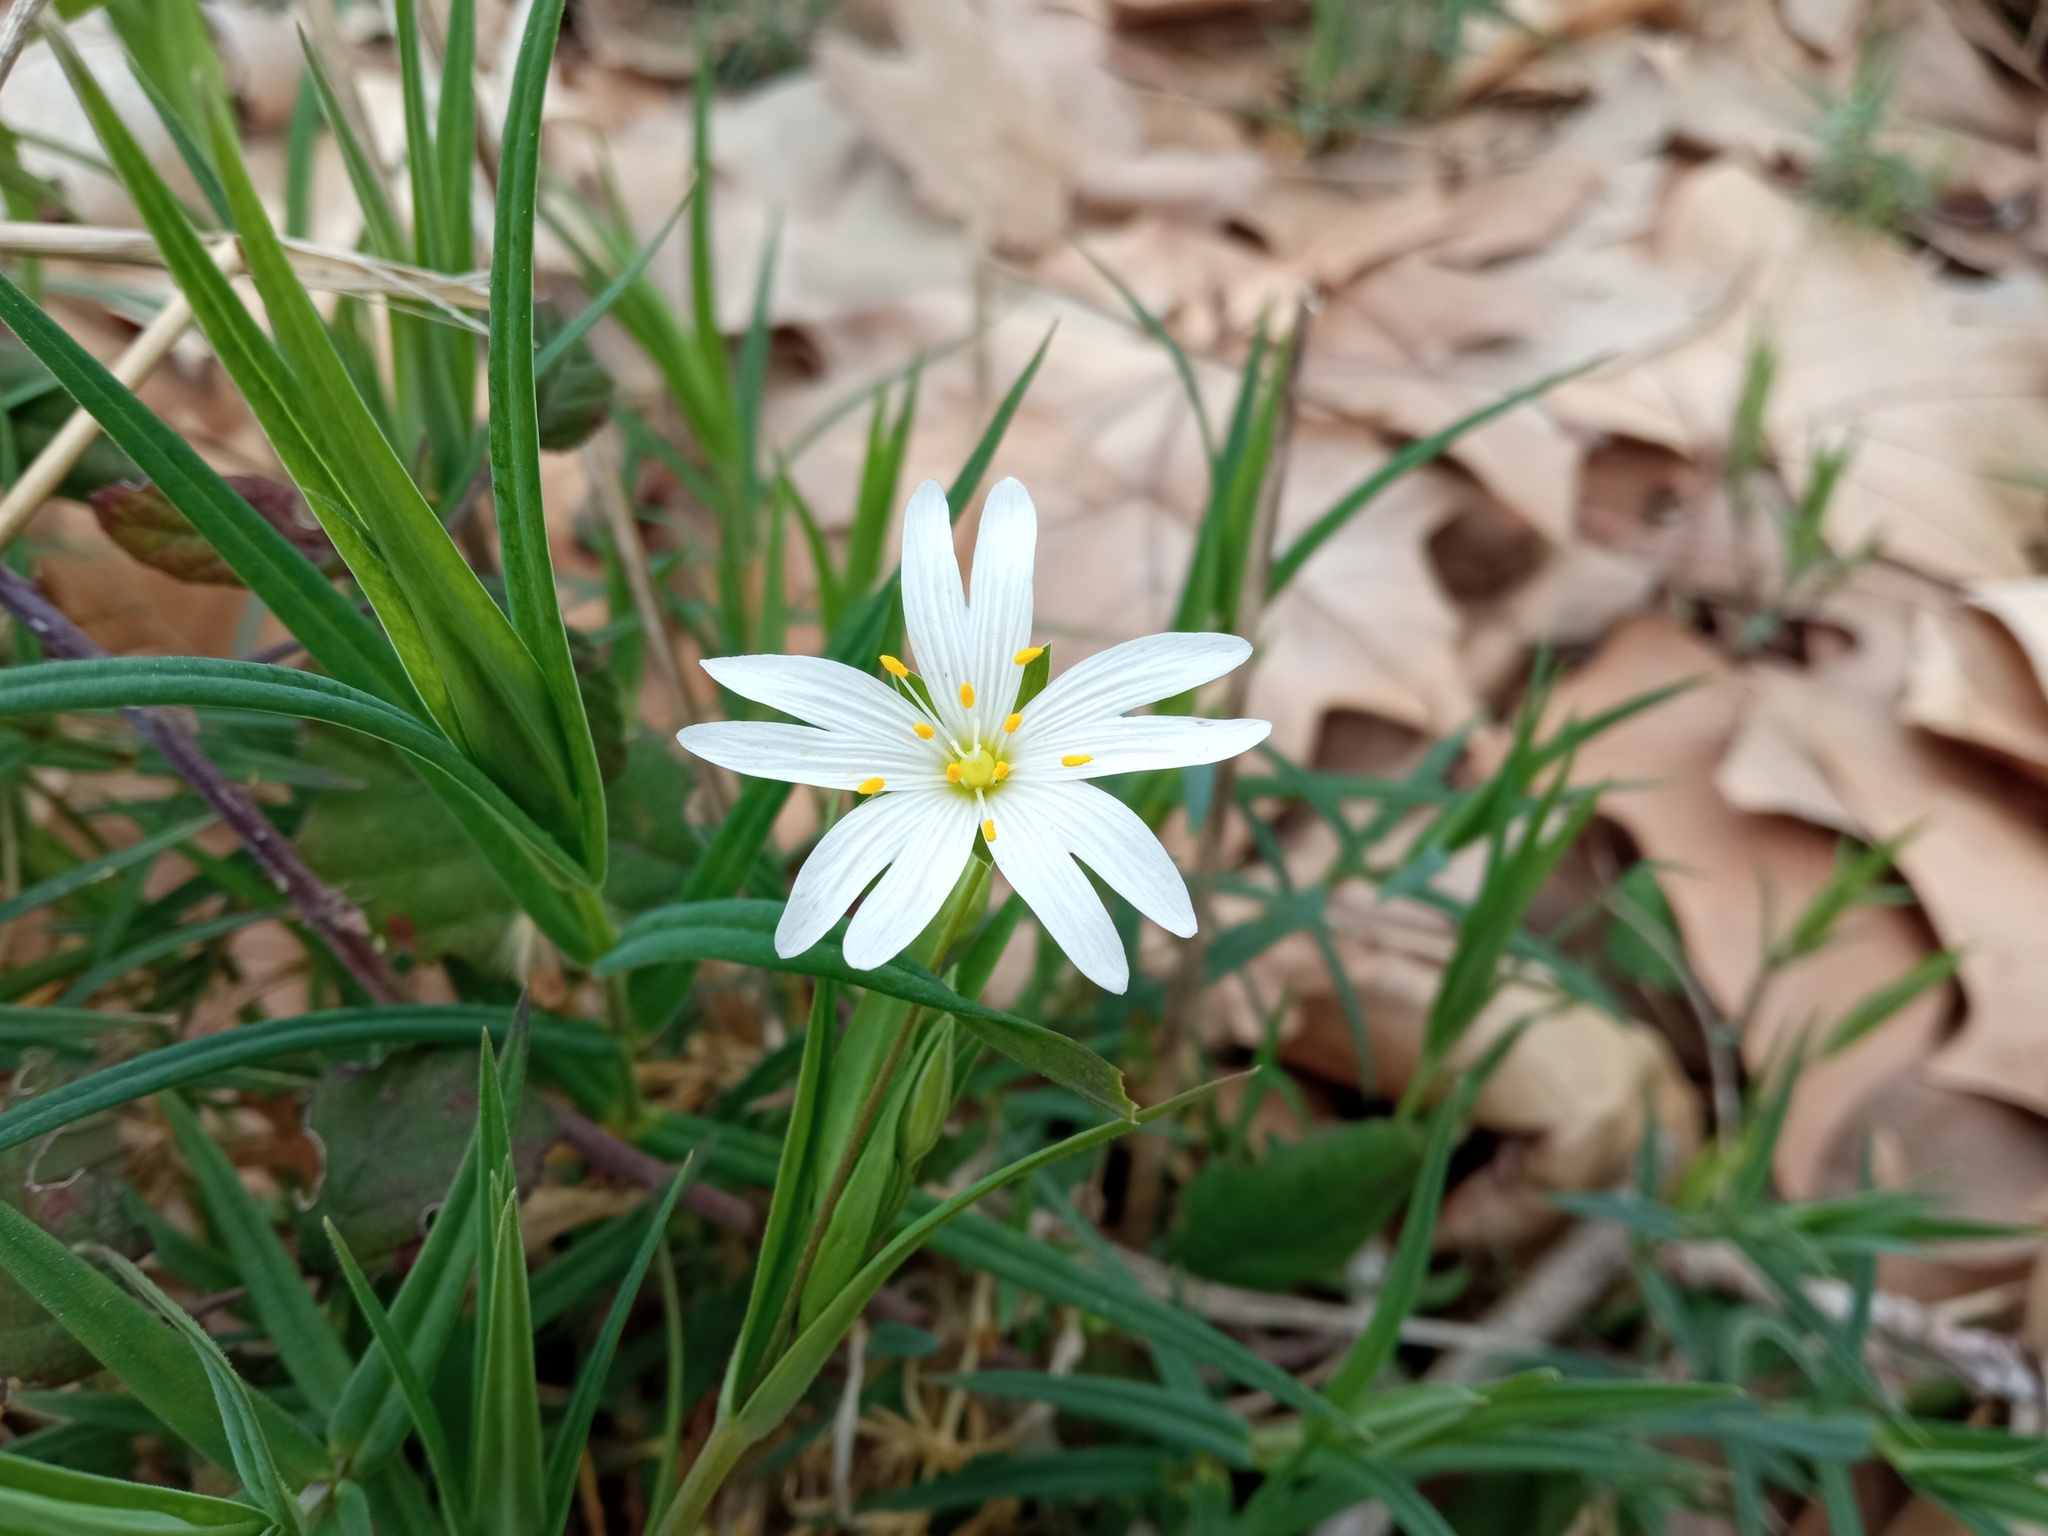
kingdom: Plantae
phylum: Tracheophyta
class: Magnoliopsida
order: Caryophyllales
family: Caryophyllaceae
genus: Rabelera
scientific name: Rabelera holostea
